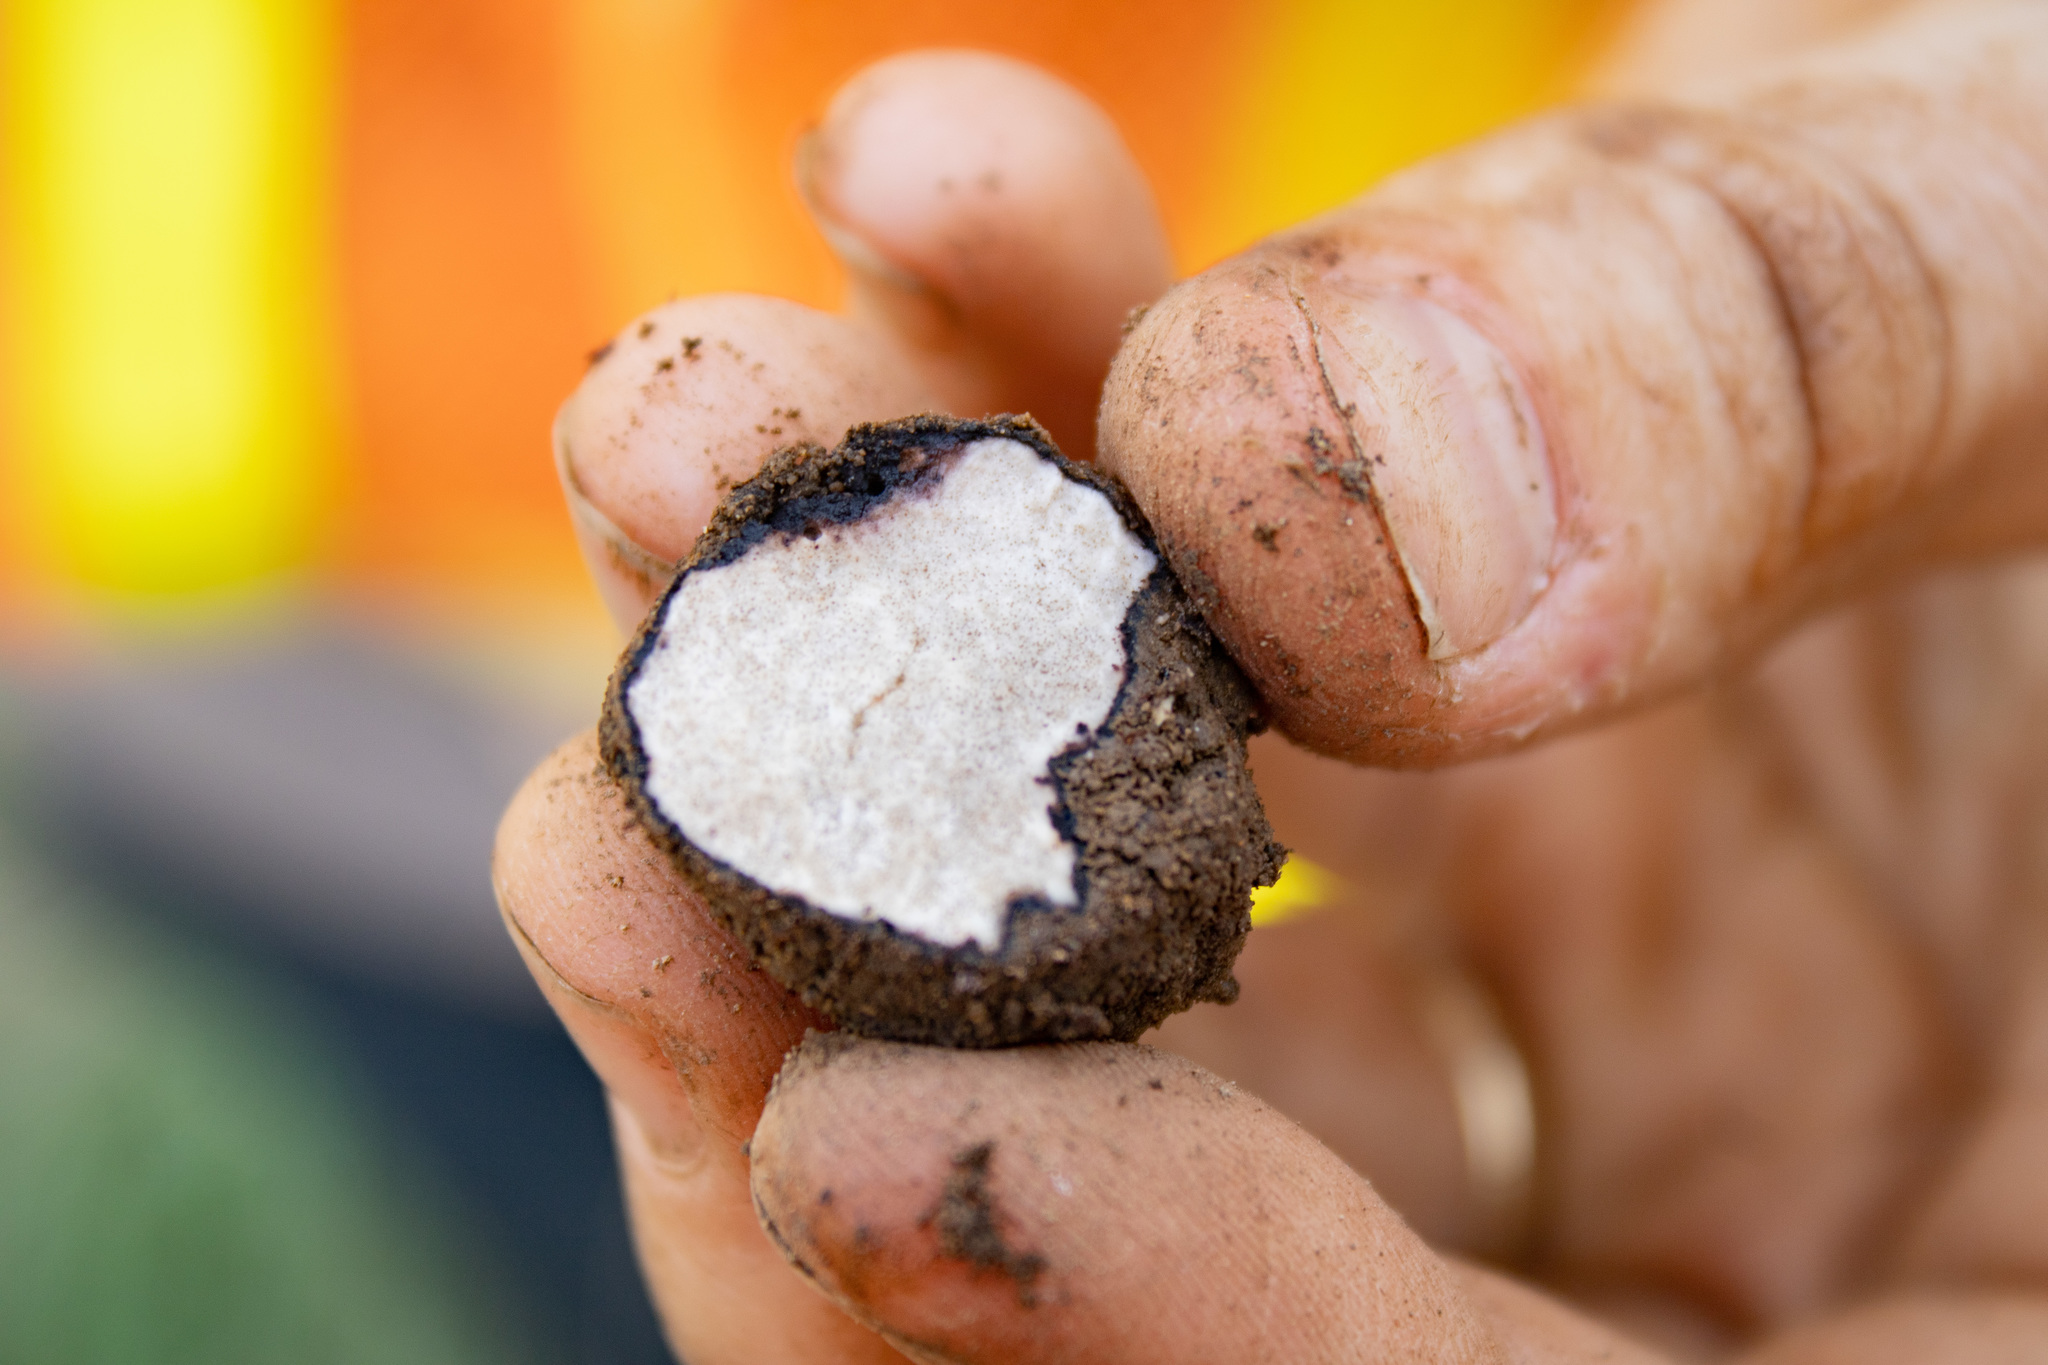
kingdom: Fungi
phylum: Ascomycota
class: Pezizomycetes
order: Pezizales
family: Morchellaceae
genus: Leucangium
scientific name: Leucangium carthusianum
